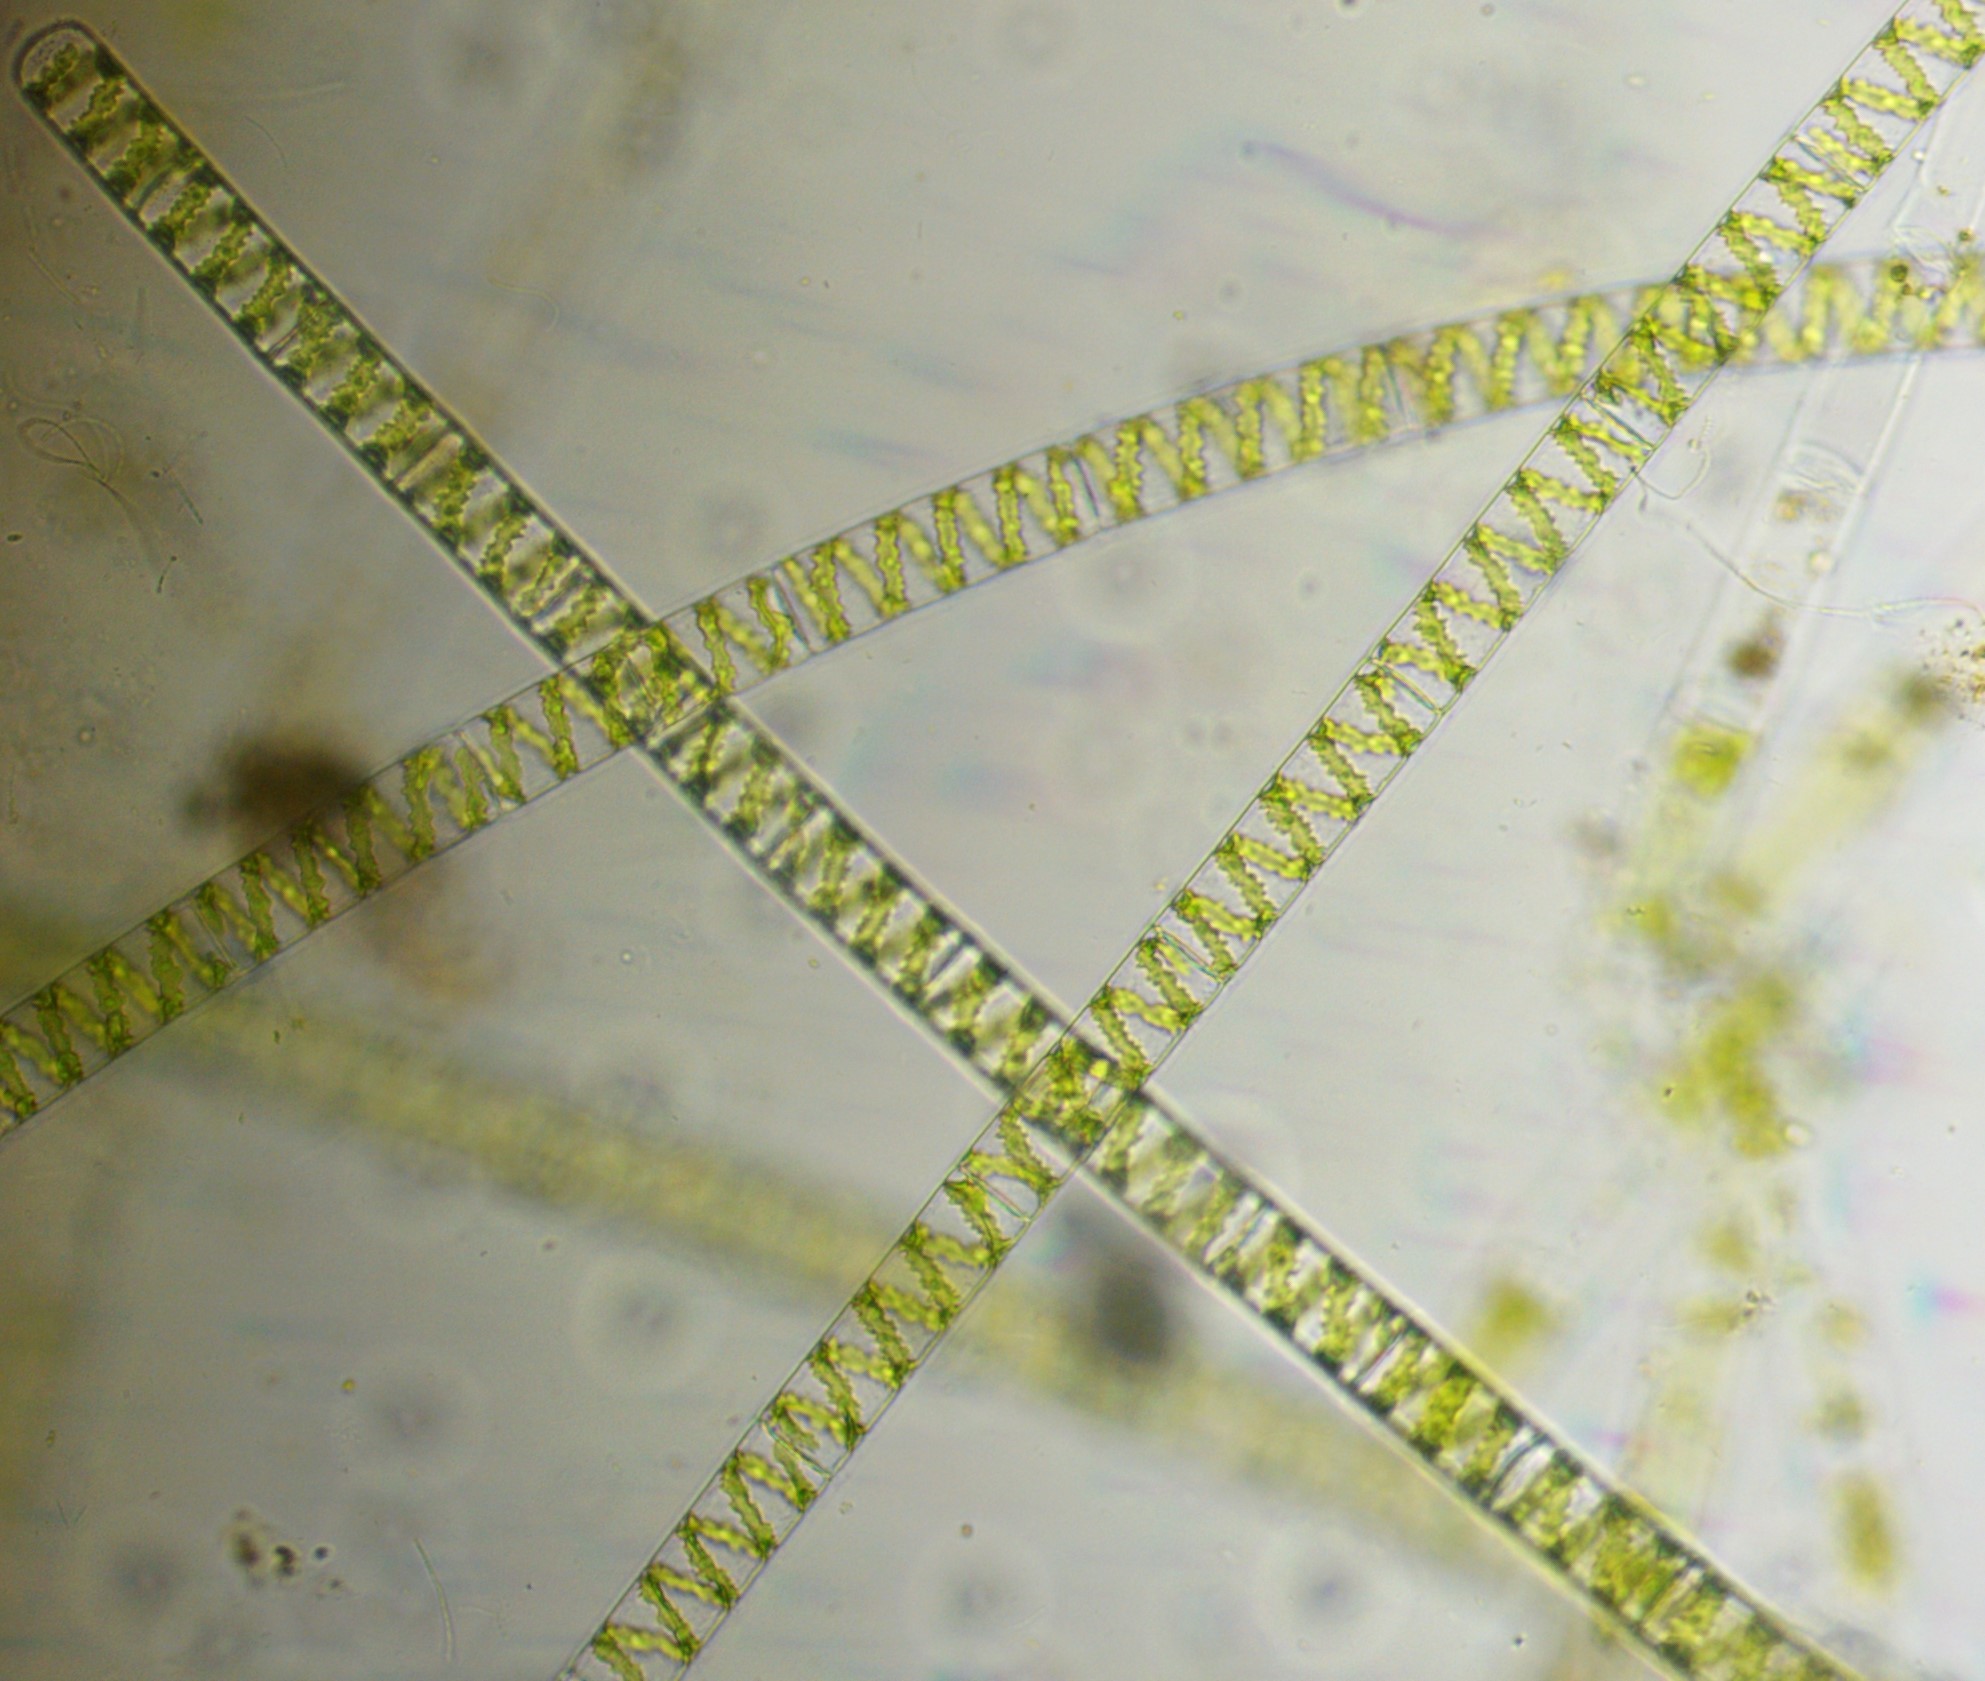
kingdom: Plantae
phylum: Charophyta
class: Zygnematophyceae
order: Zygnematales
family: Zygnemataceae
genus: Spirogyra
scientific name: Spirogyra
